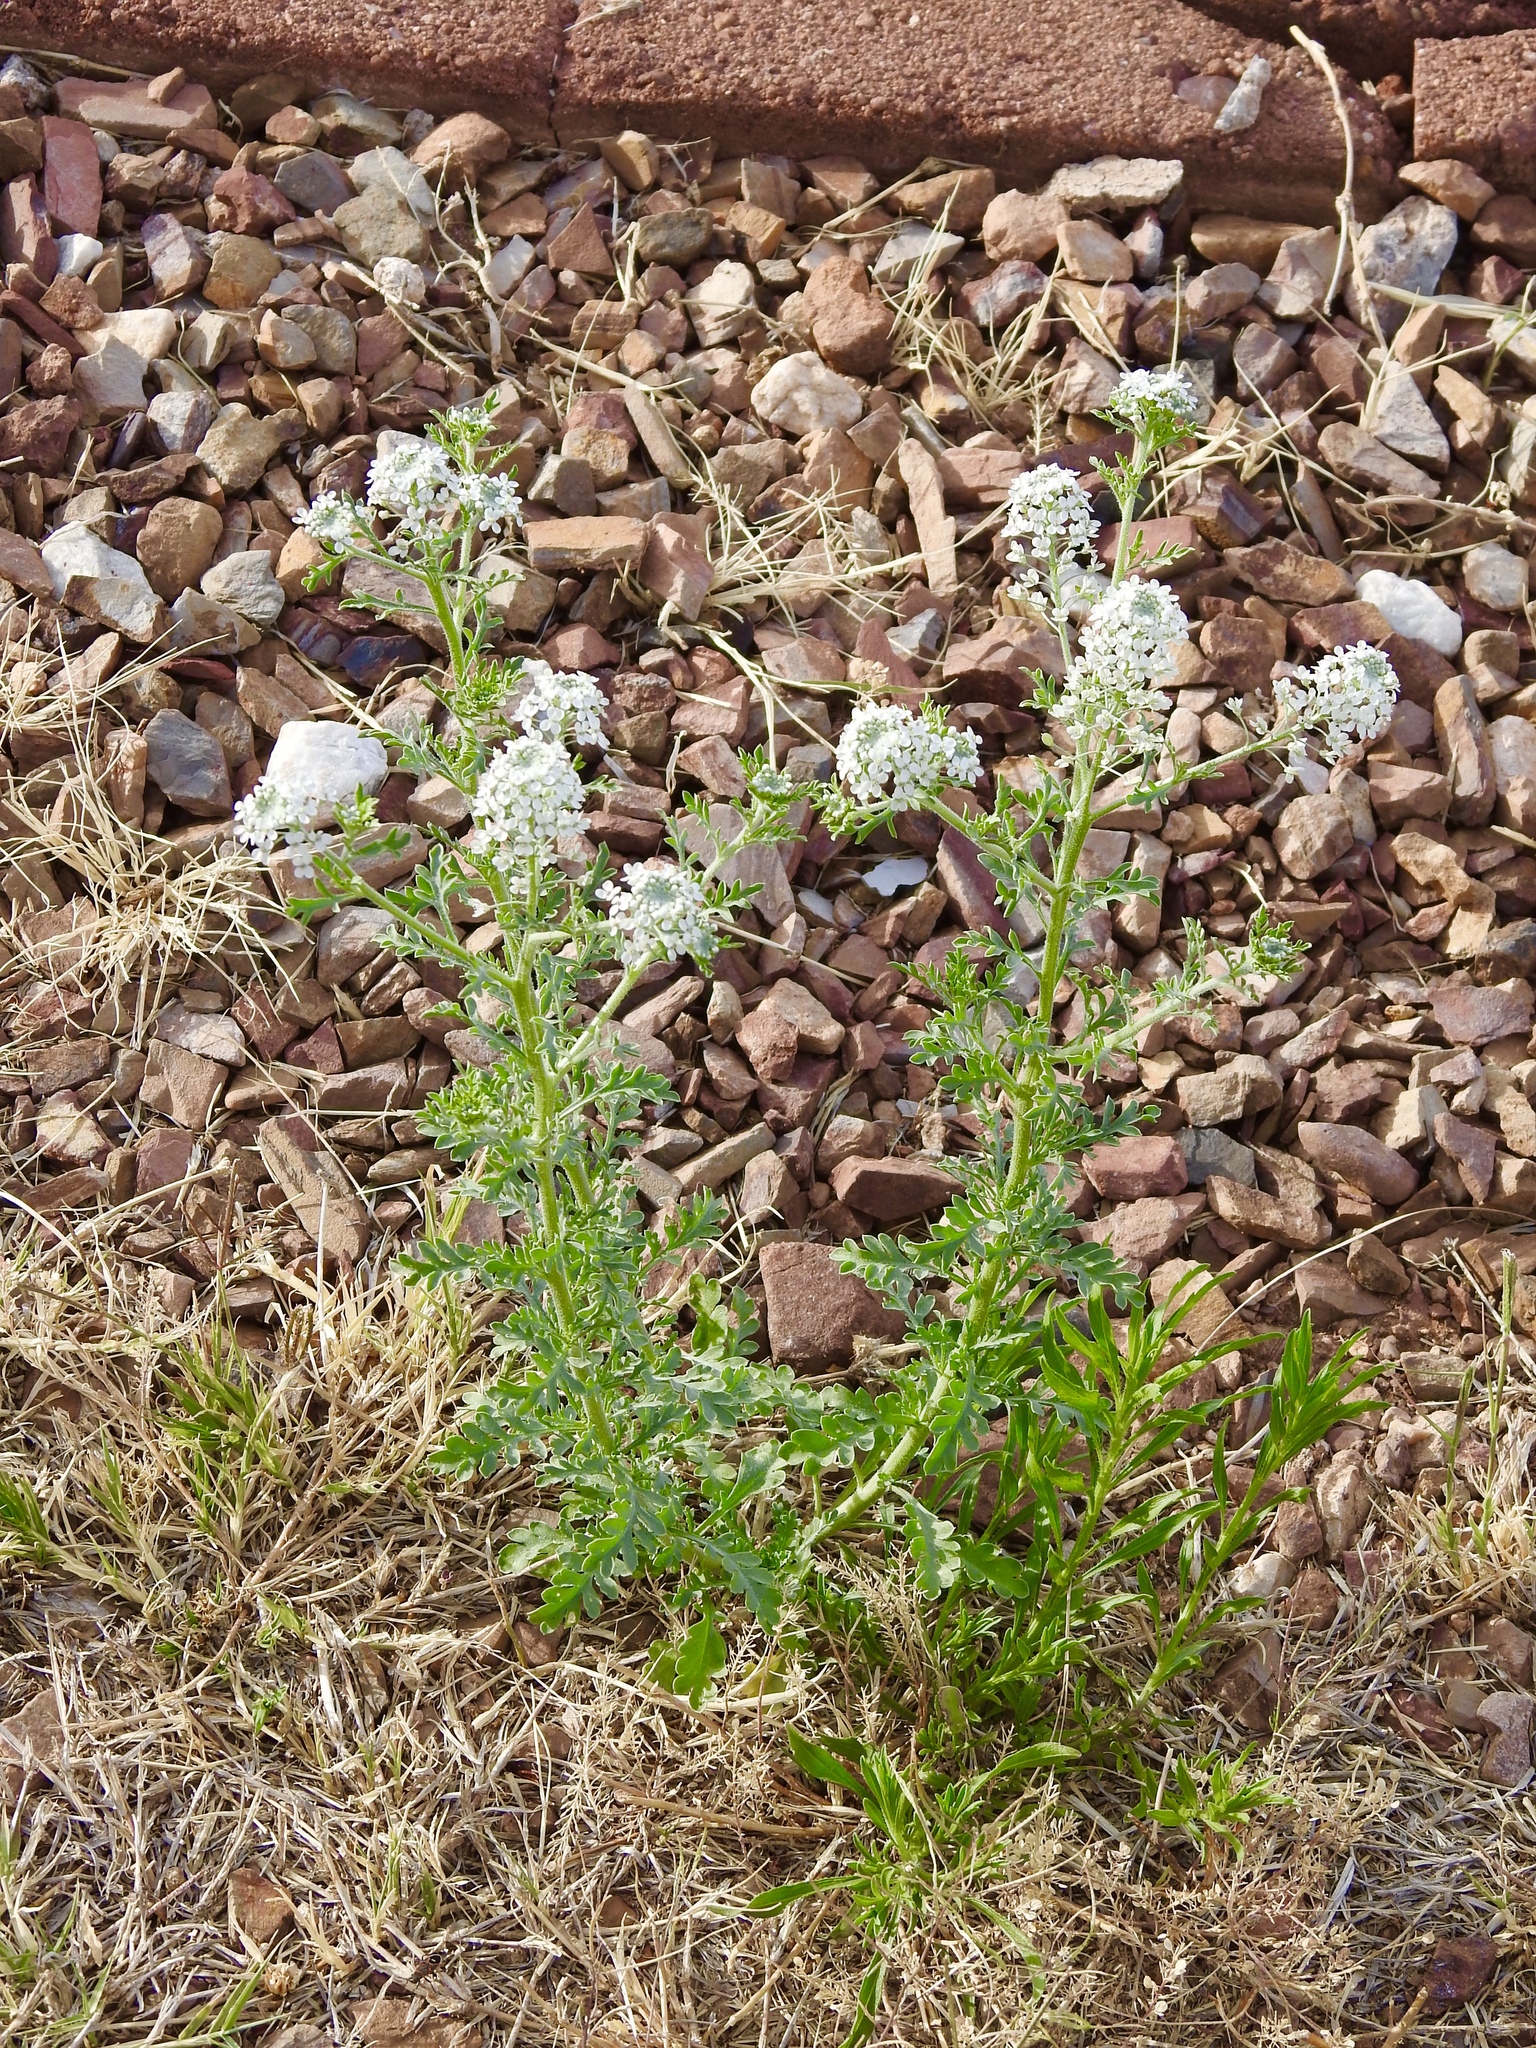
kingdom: Plantae
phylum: Tracheophyta
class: Magnoliopsida
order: Brassicales
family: Brassicaceae
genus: Lepidium
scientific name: Lepidium thurberi
